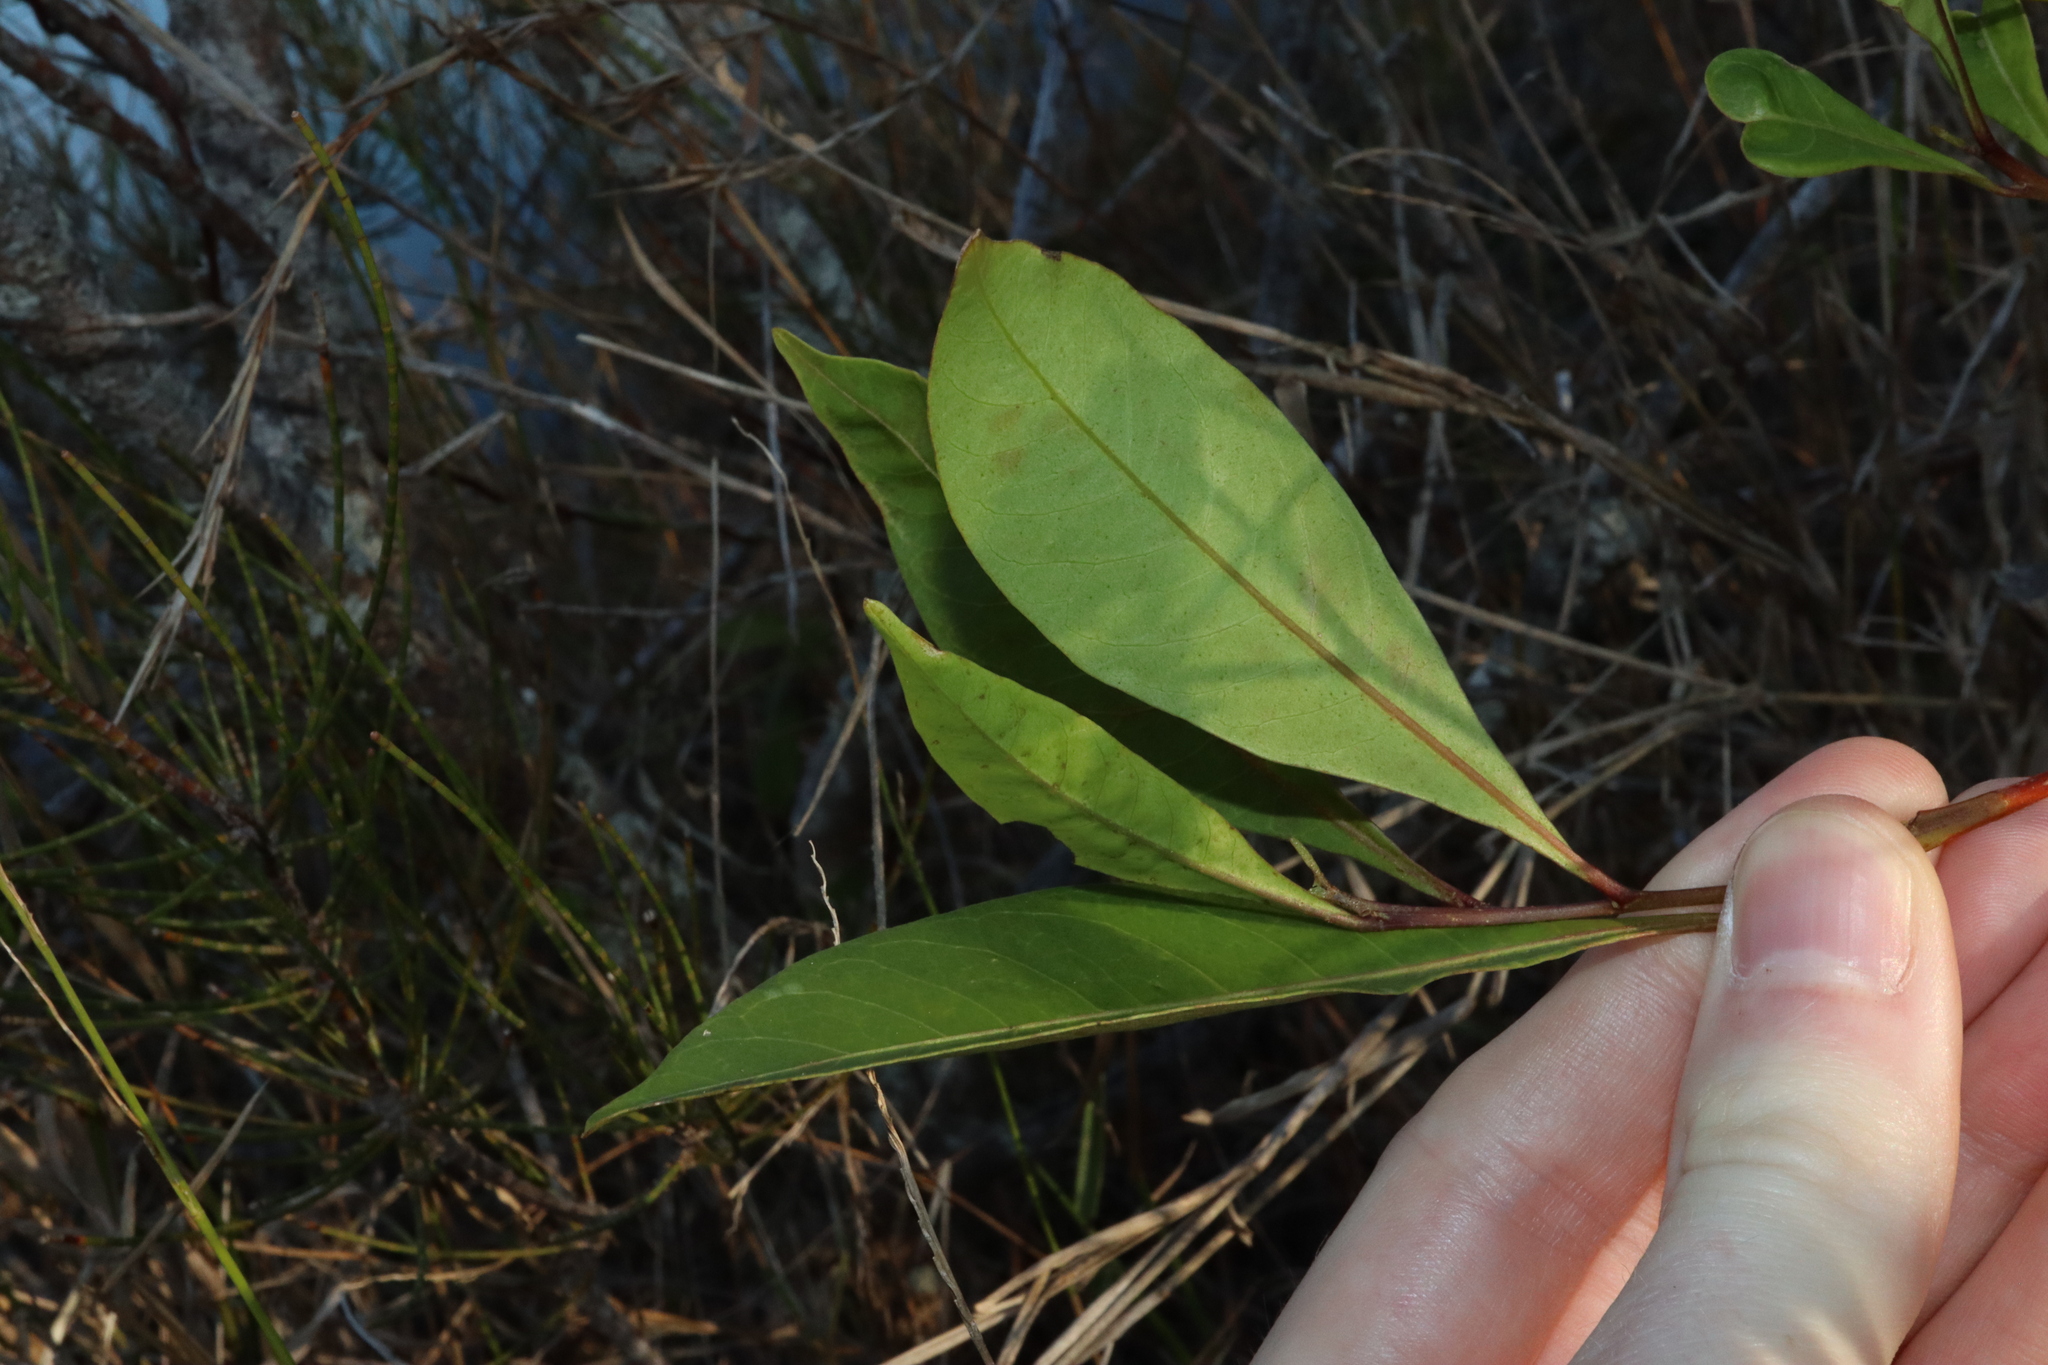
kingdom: Plantae
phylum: Tracheophyta
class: Magnoliopsida
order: Sapindales
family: Sapindaceae
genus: Dodonaea
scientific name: Dodonaea triquetra
